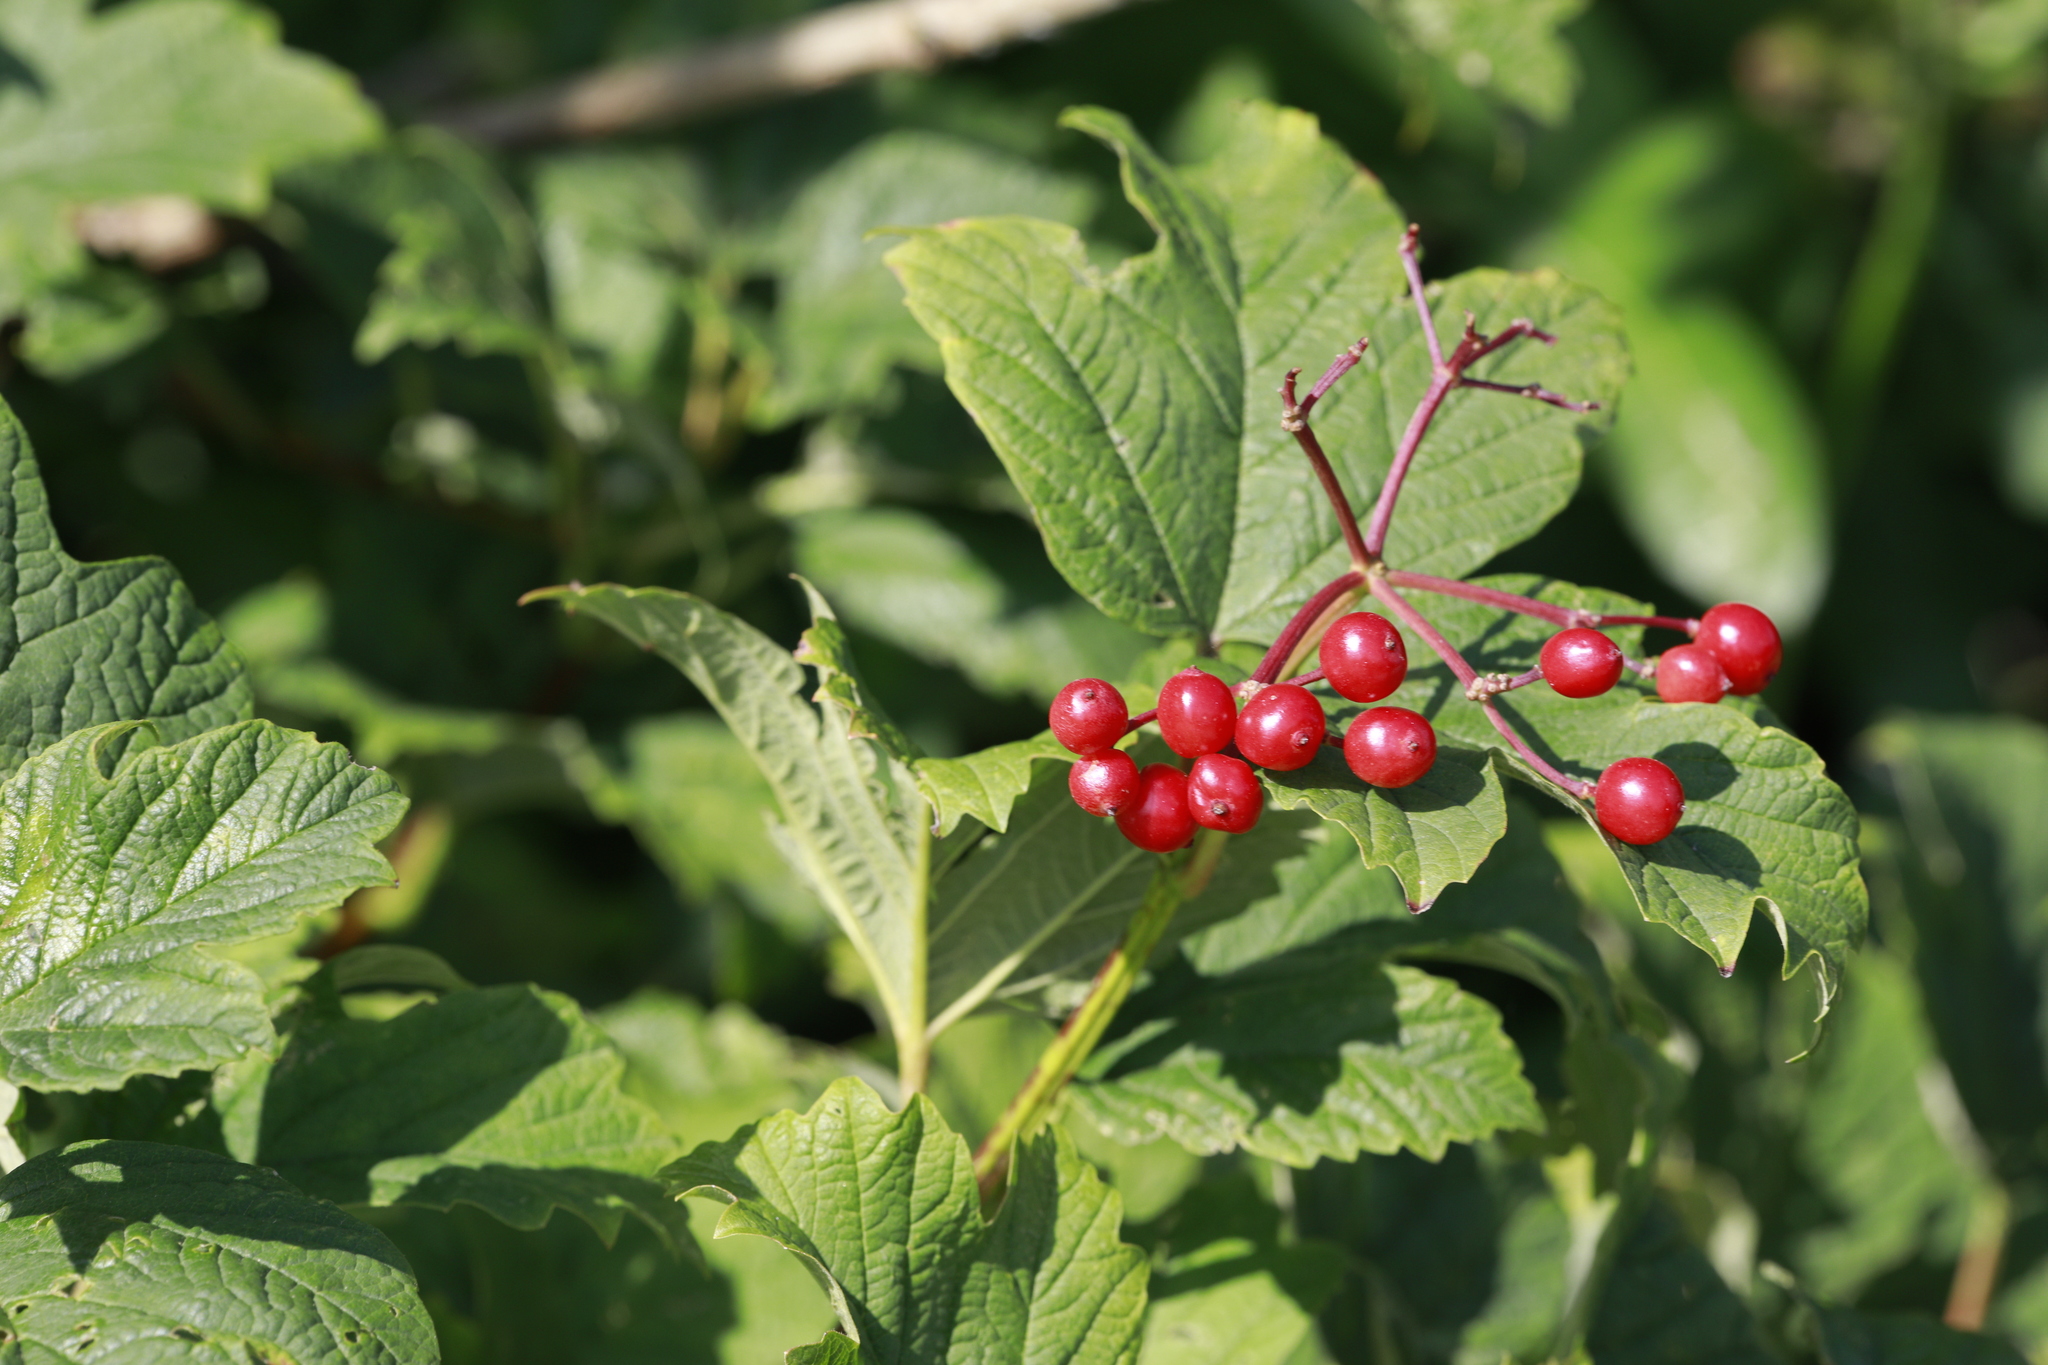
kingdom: Plantae
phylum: Tracheophyta
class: Magnoliopsida
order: Dipsacales
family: Viburnaceae
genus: Viburnum
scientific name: Viburnum opulus
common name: Guelder-rose
